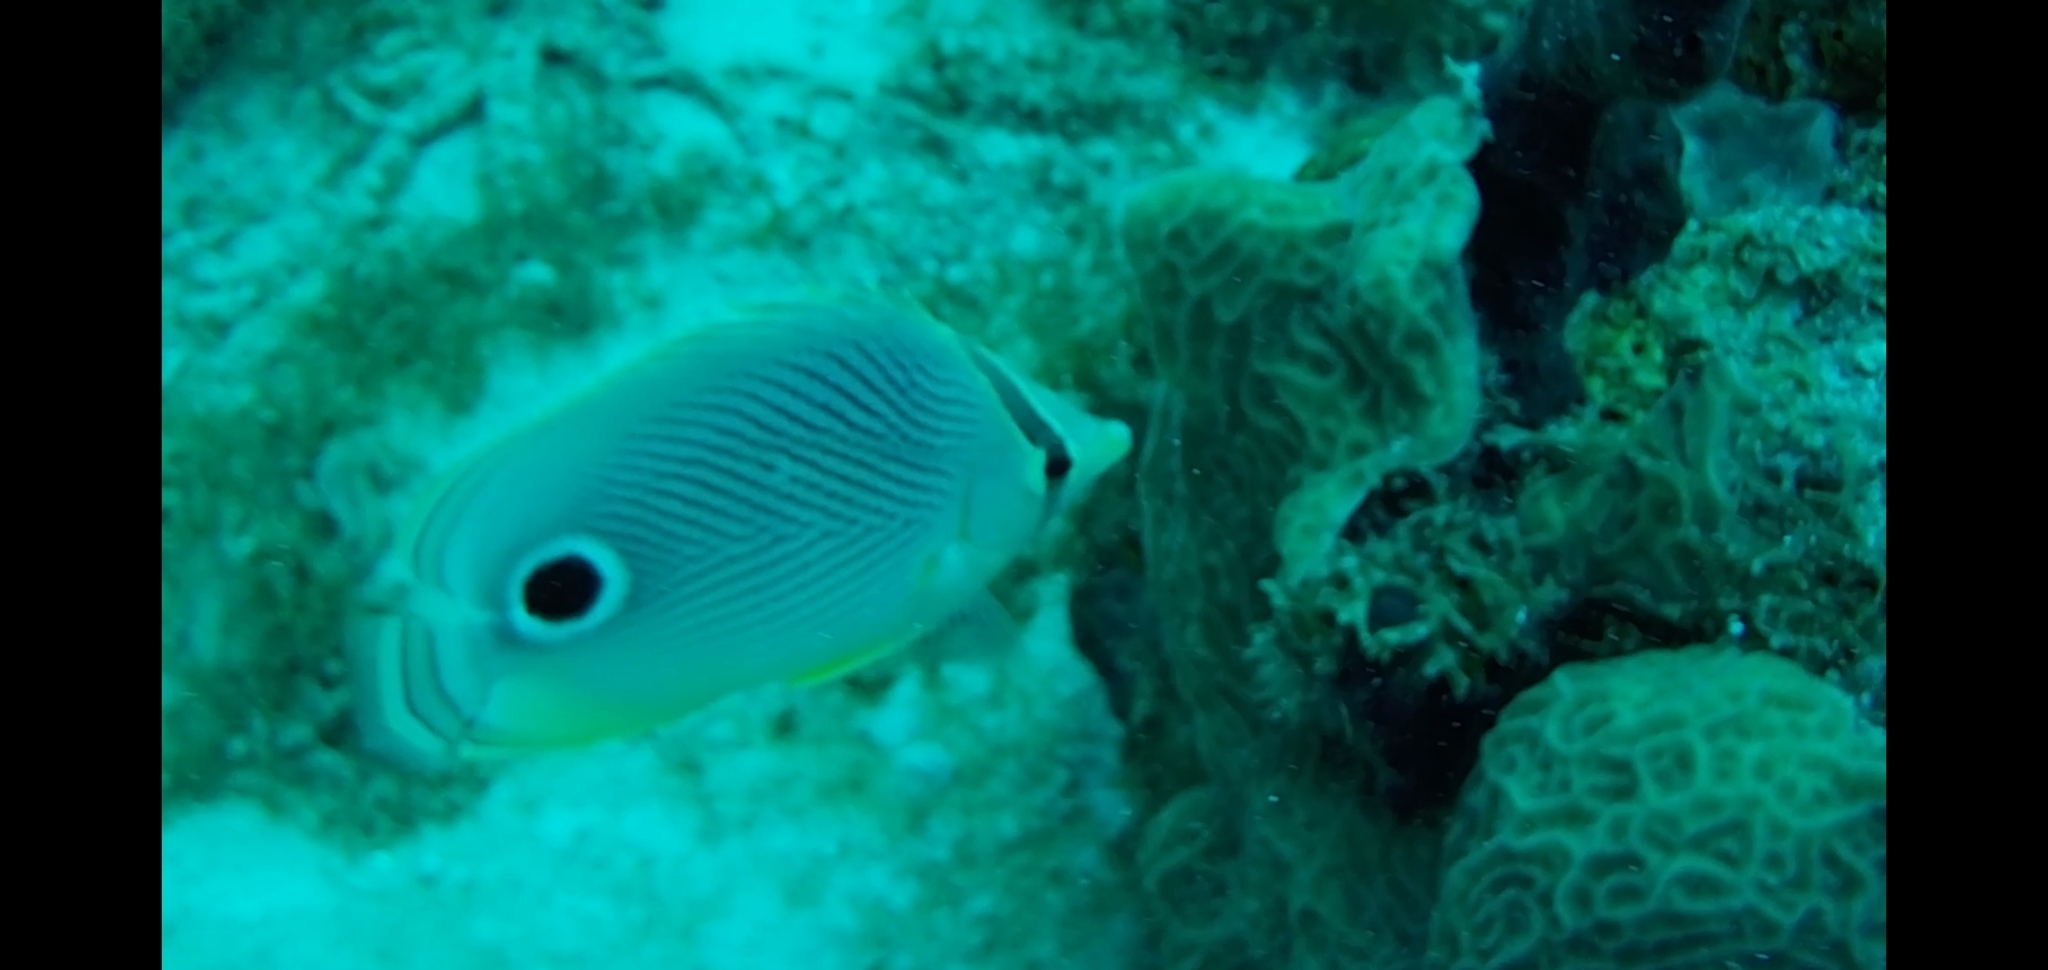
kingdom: Animalia
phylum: Chordata
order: Perciformes
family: Chaetodontidae
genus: Chaetodon
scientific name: Chaetodon capistratus
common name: Kete
